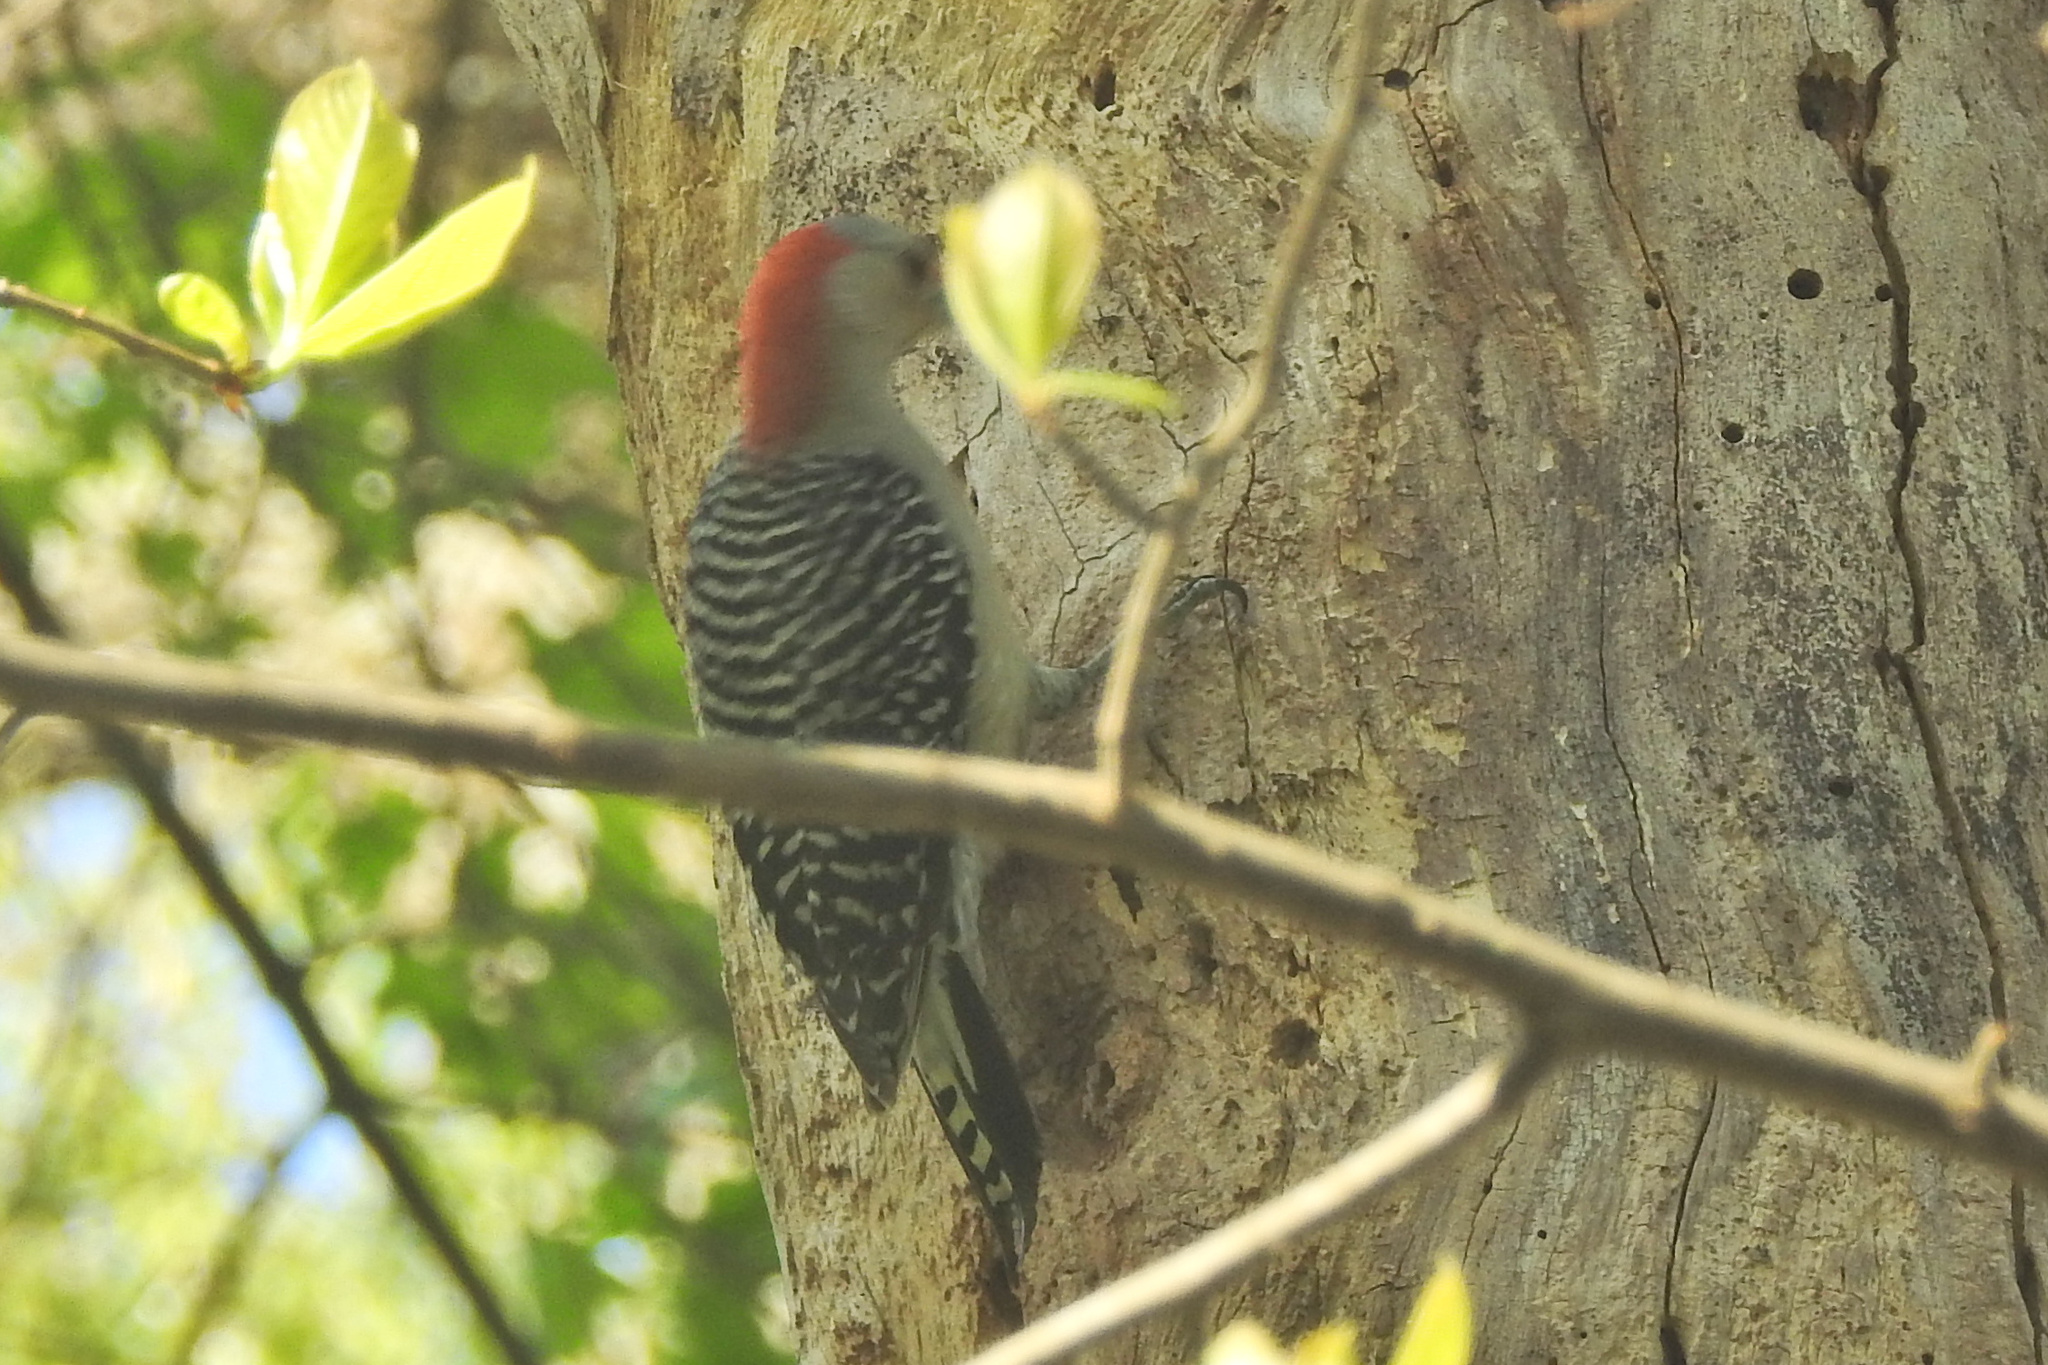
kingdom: Animalia
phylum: Chordata
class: Aves
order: Piciformes
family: Picidae
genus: Melanerpes
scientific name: Melanerpes carolinus
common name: Red-bellied woodpecker
